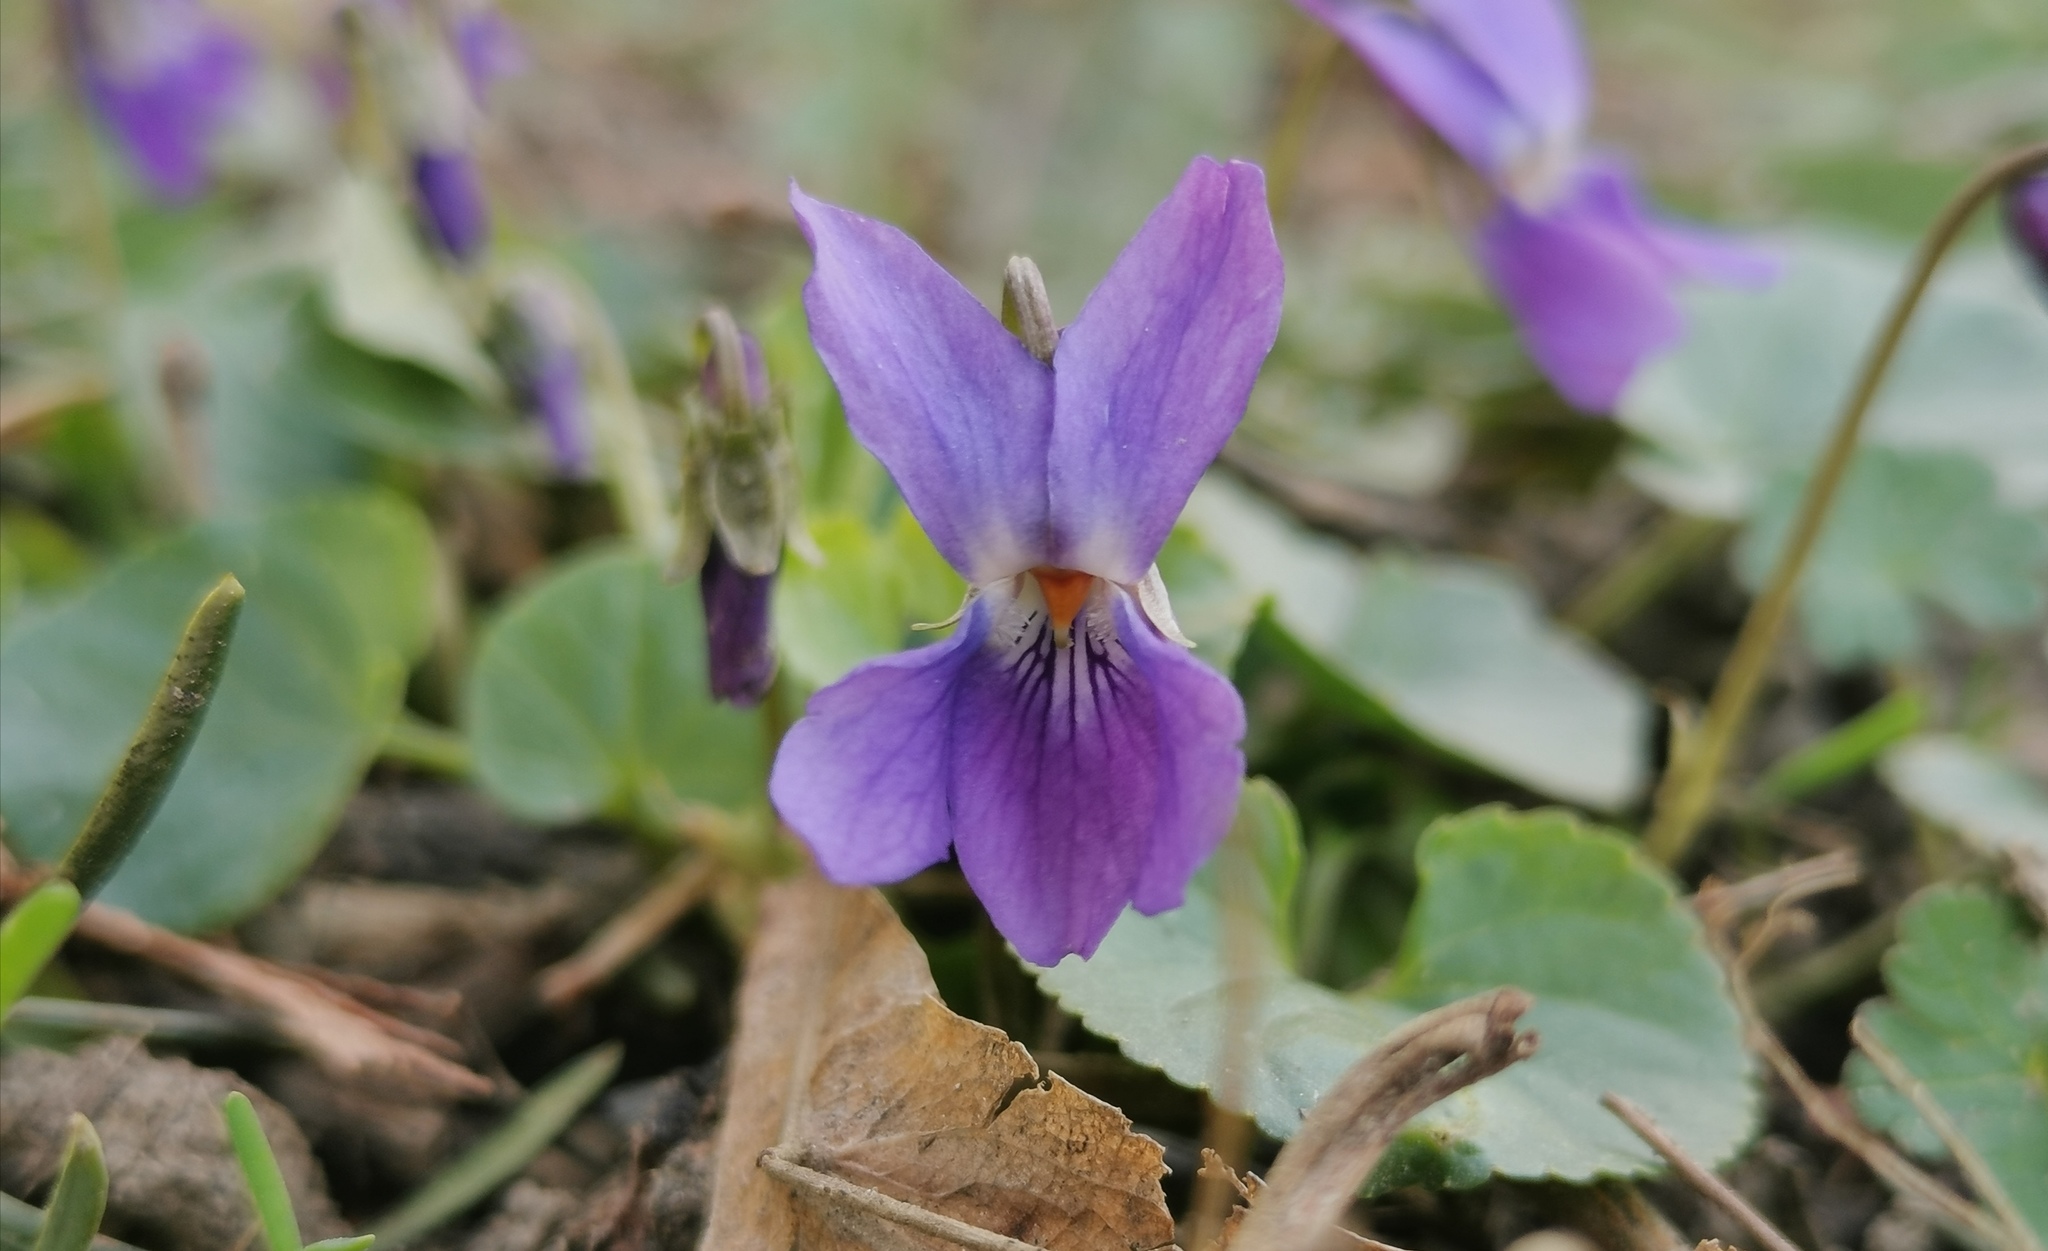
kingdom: Plantae
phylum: Tracheophyta
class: Magnoliopsida
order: Malpighiales
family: Violaceae
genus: Viola
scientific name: Viola odorata
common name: Sweet violet
